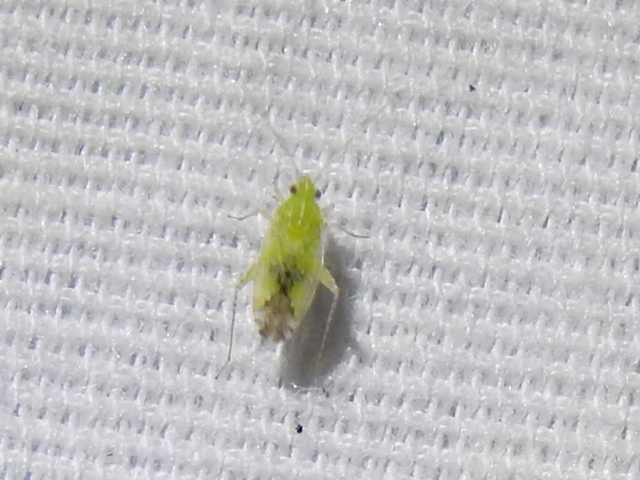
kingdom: Animalia
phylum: Arthropoda
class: Insecta
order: Hemiptera
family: Miridae
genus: Keltonia
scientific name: Keltonia tuckeri
